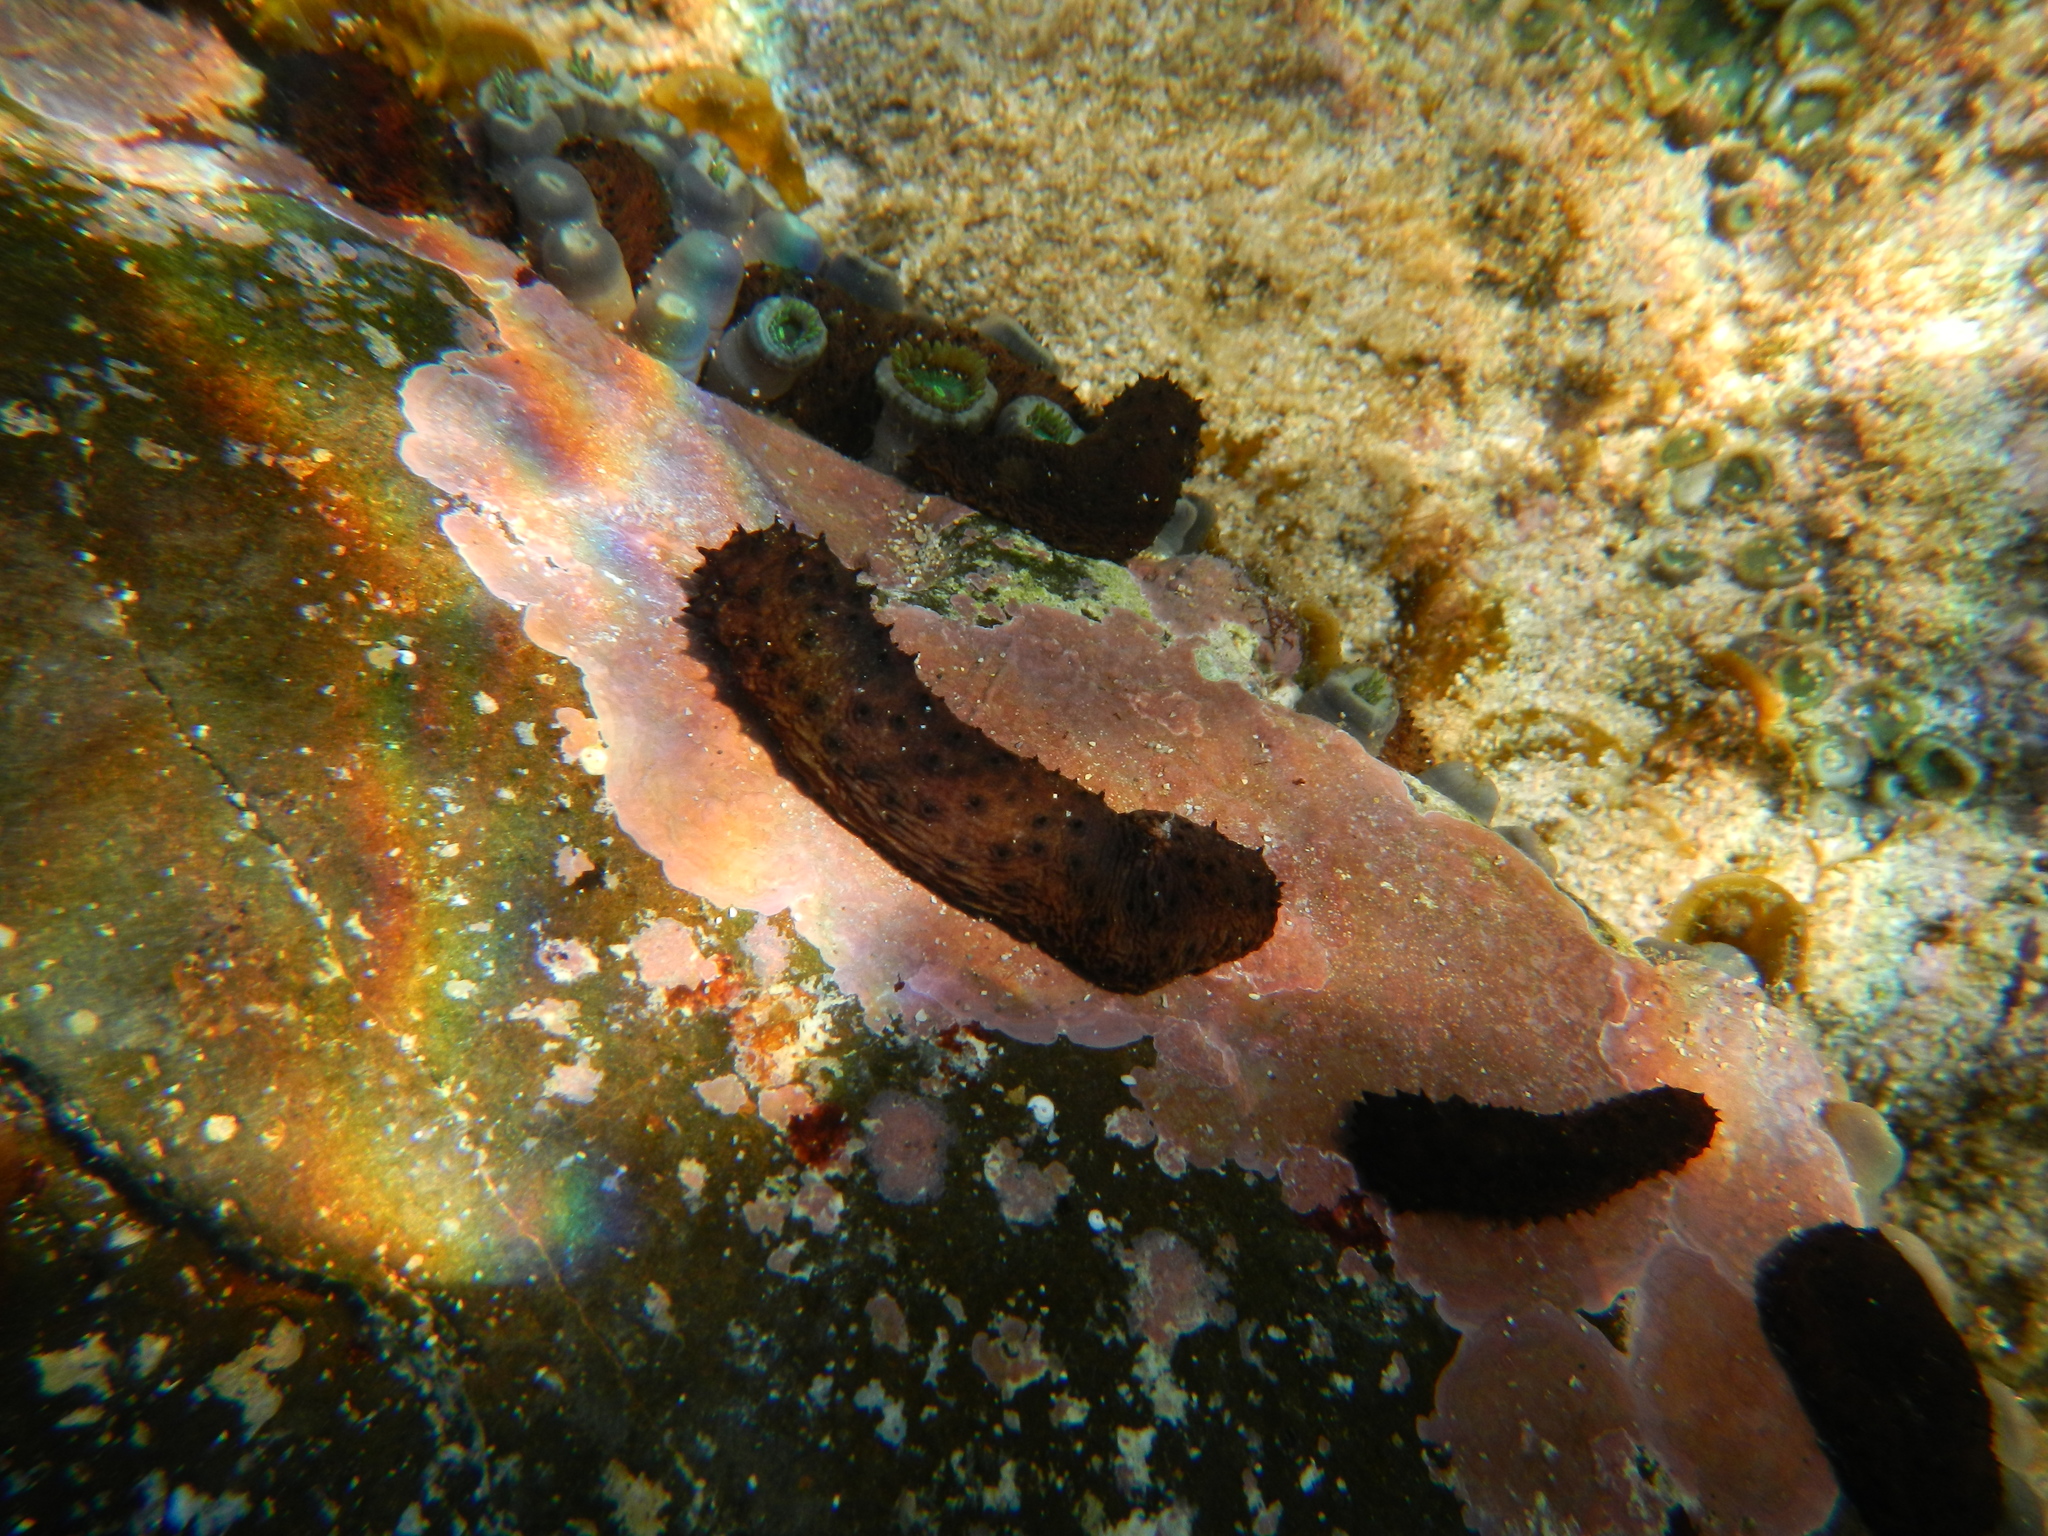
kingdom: Animalia
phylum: Echinodermata
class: Holothuroidea
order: Holothuriida
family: Holothuriidae
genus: Holothuria
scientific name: Holothuria difficilis
